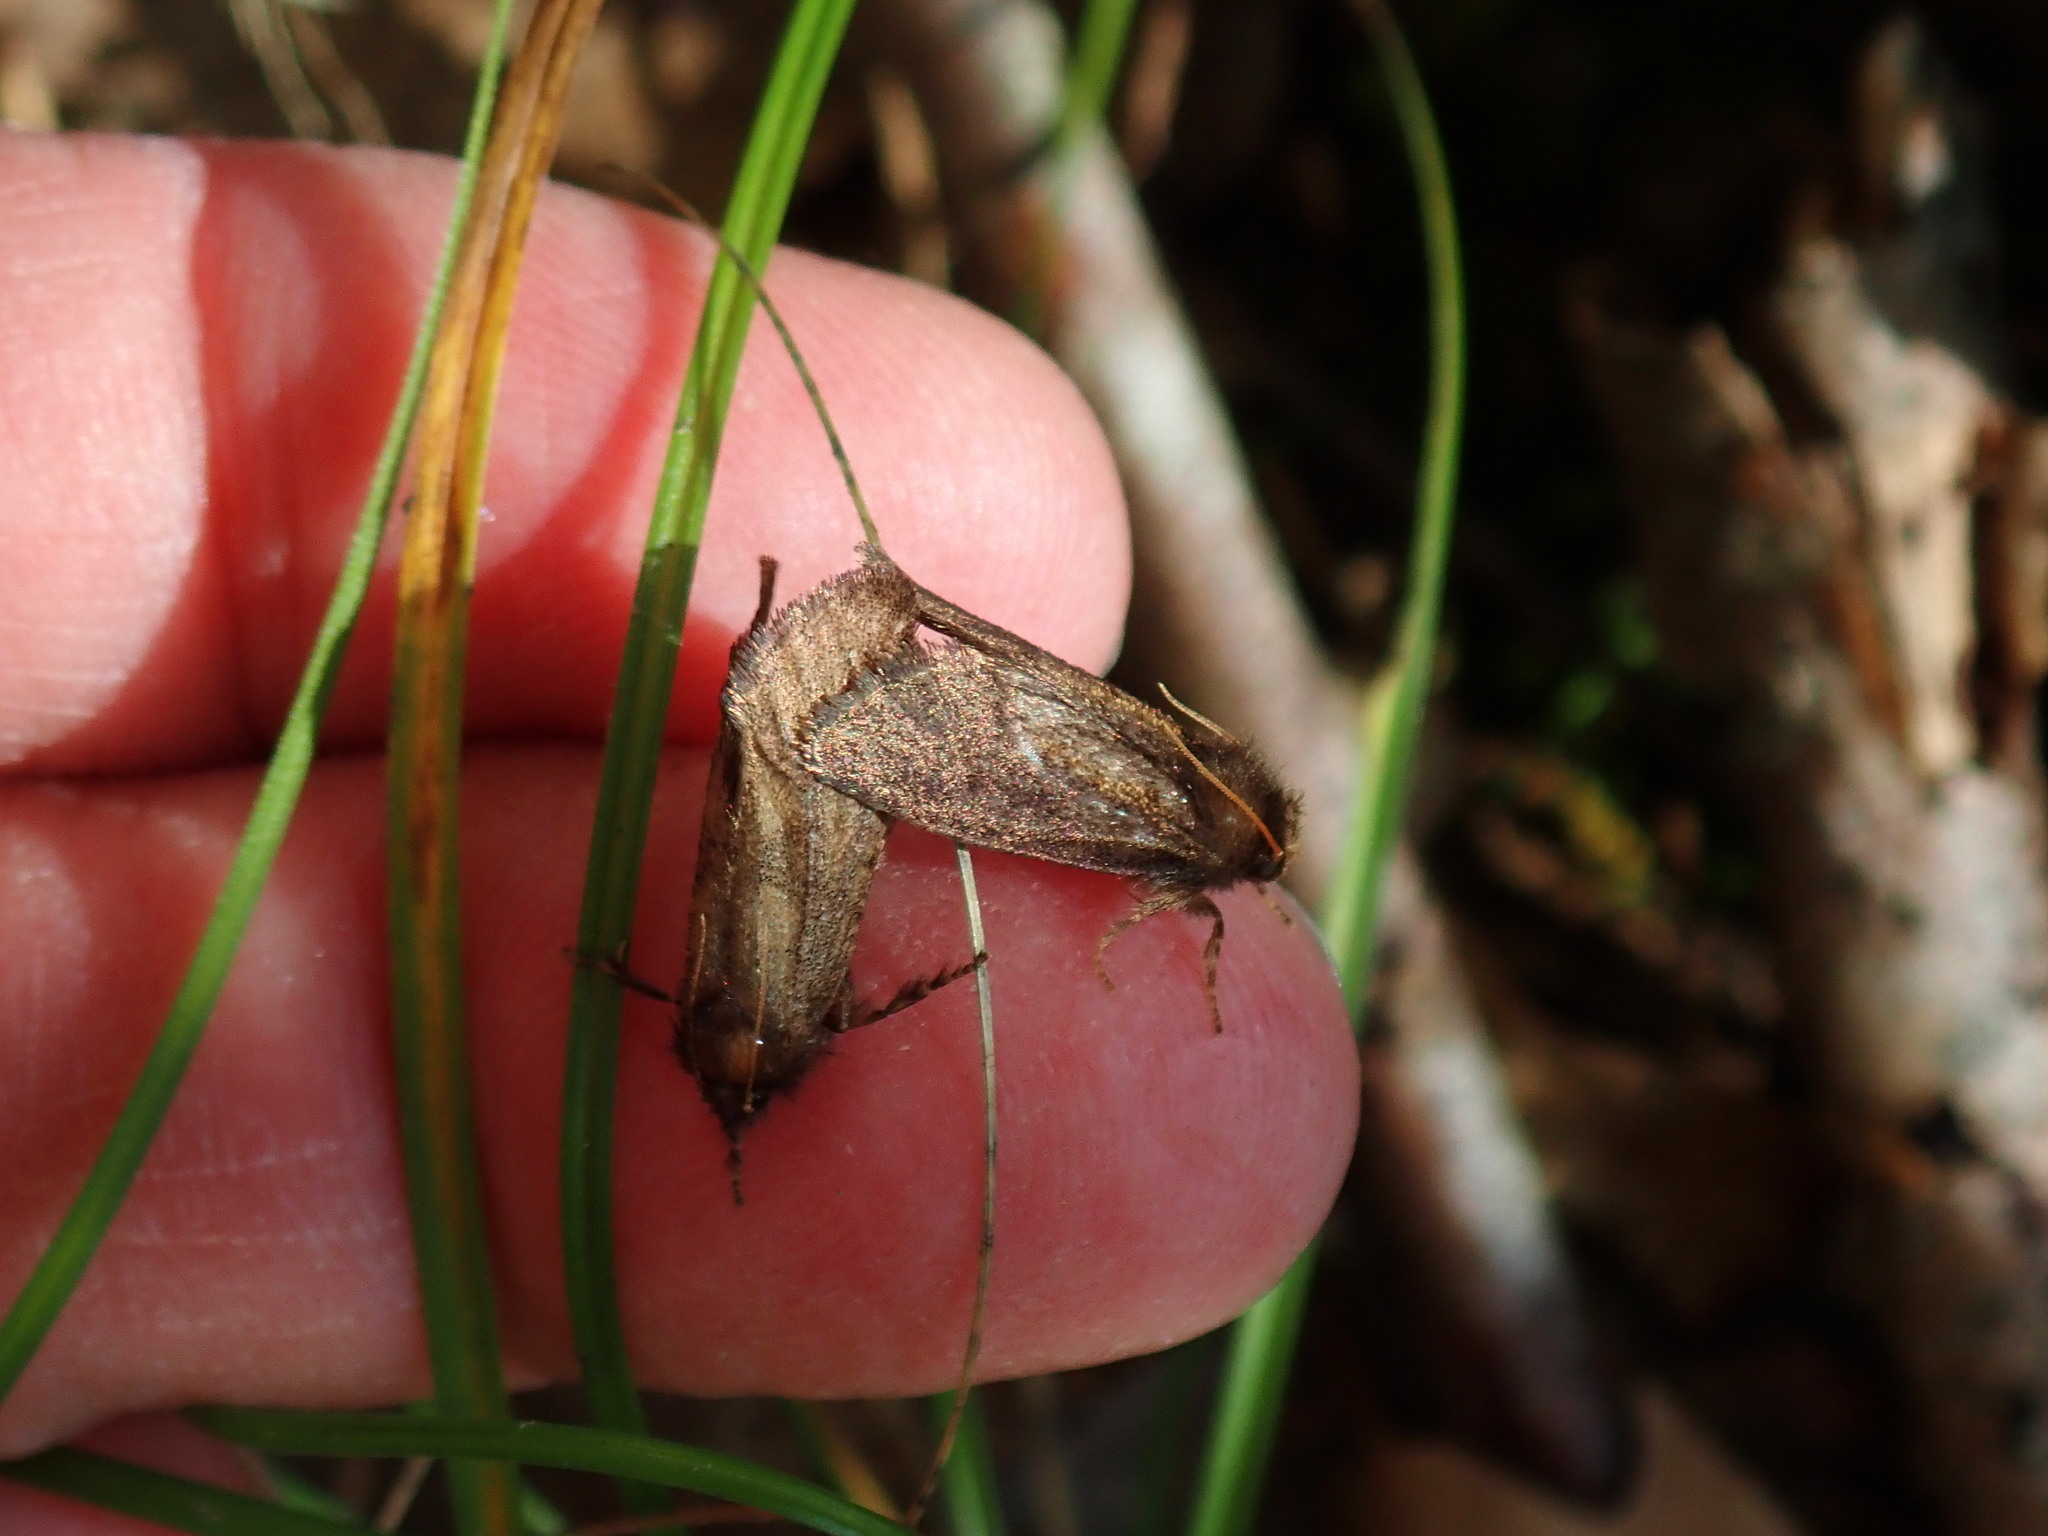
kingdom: Animalia
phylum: Arthropoda
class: Insecta
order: Lepidoptera
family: Tineidae
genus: Acrolophus
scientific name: Acrolophus mora
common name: Dark acrolophus
